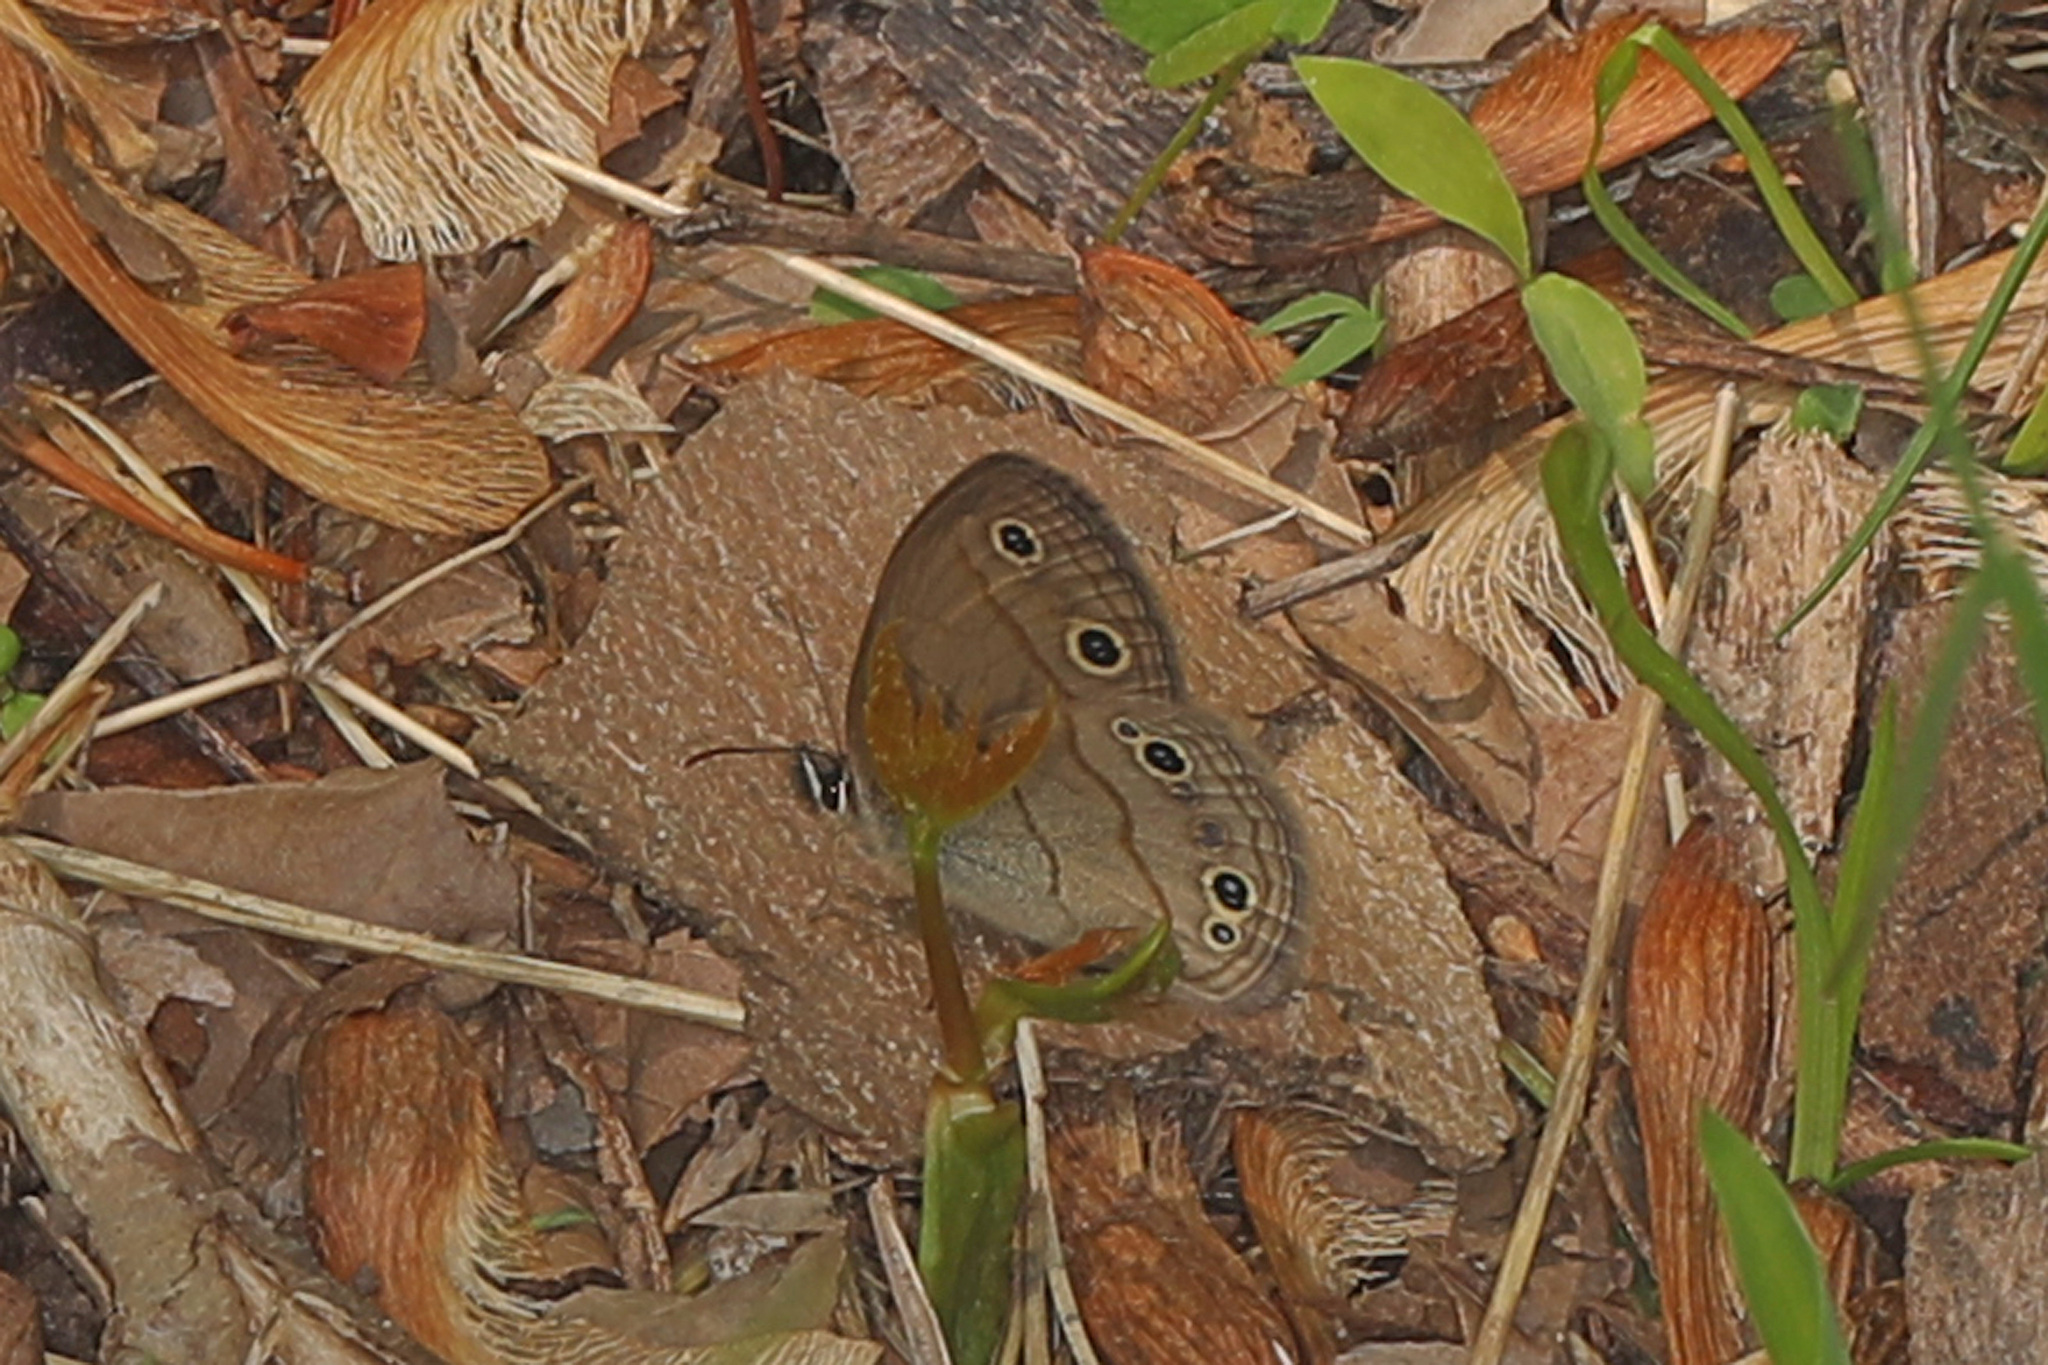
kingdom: Animalia
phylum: Arthropoda
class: Insecta
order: Lepidoptera
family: Nymphalidae
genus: Euptychia
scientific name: Euptychia cymela
